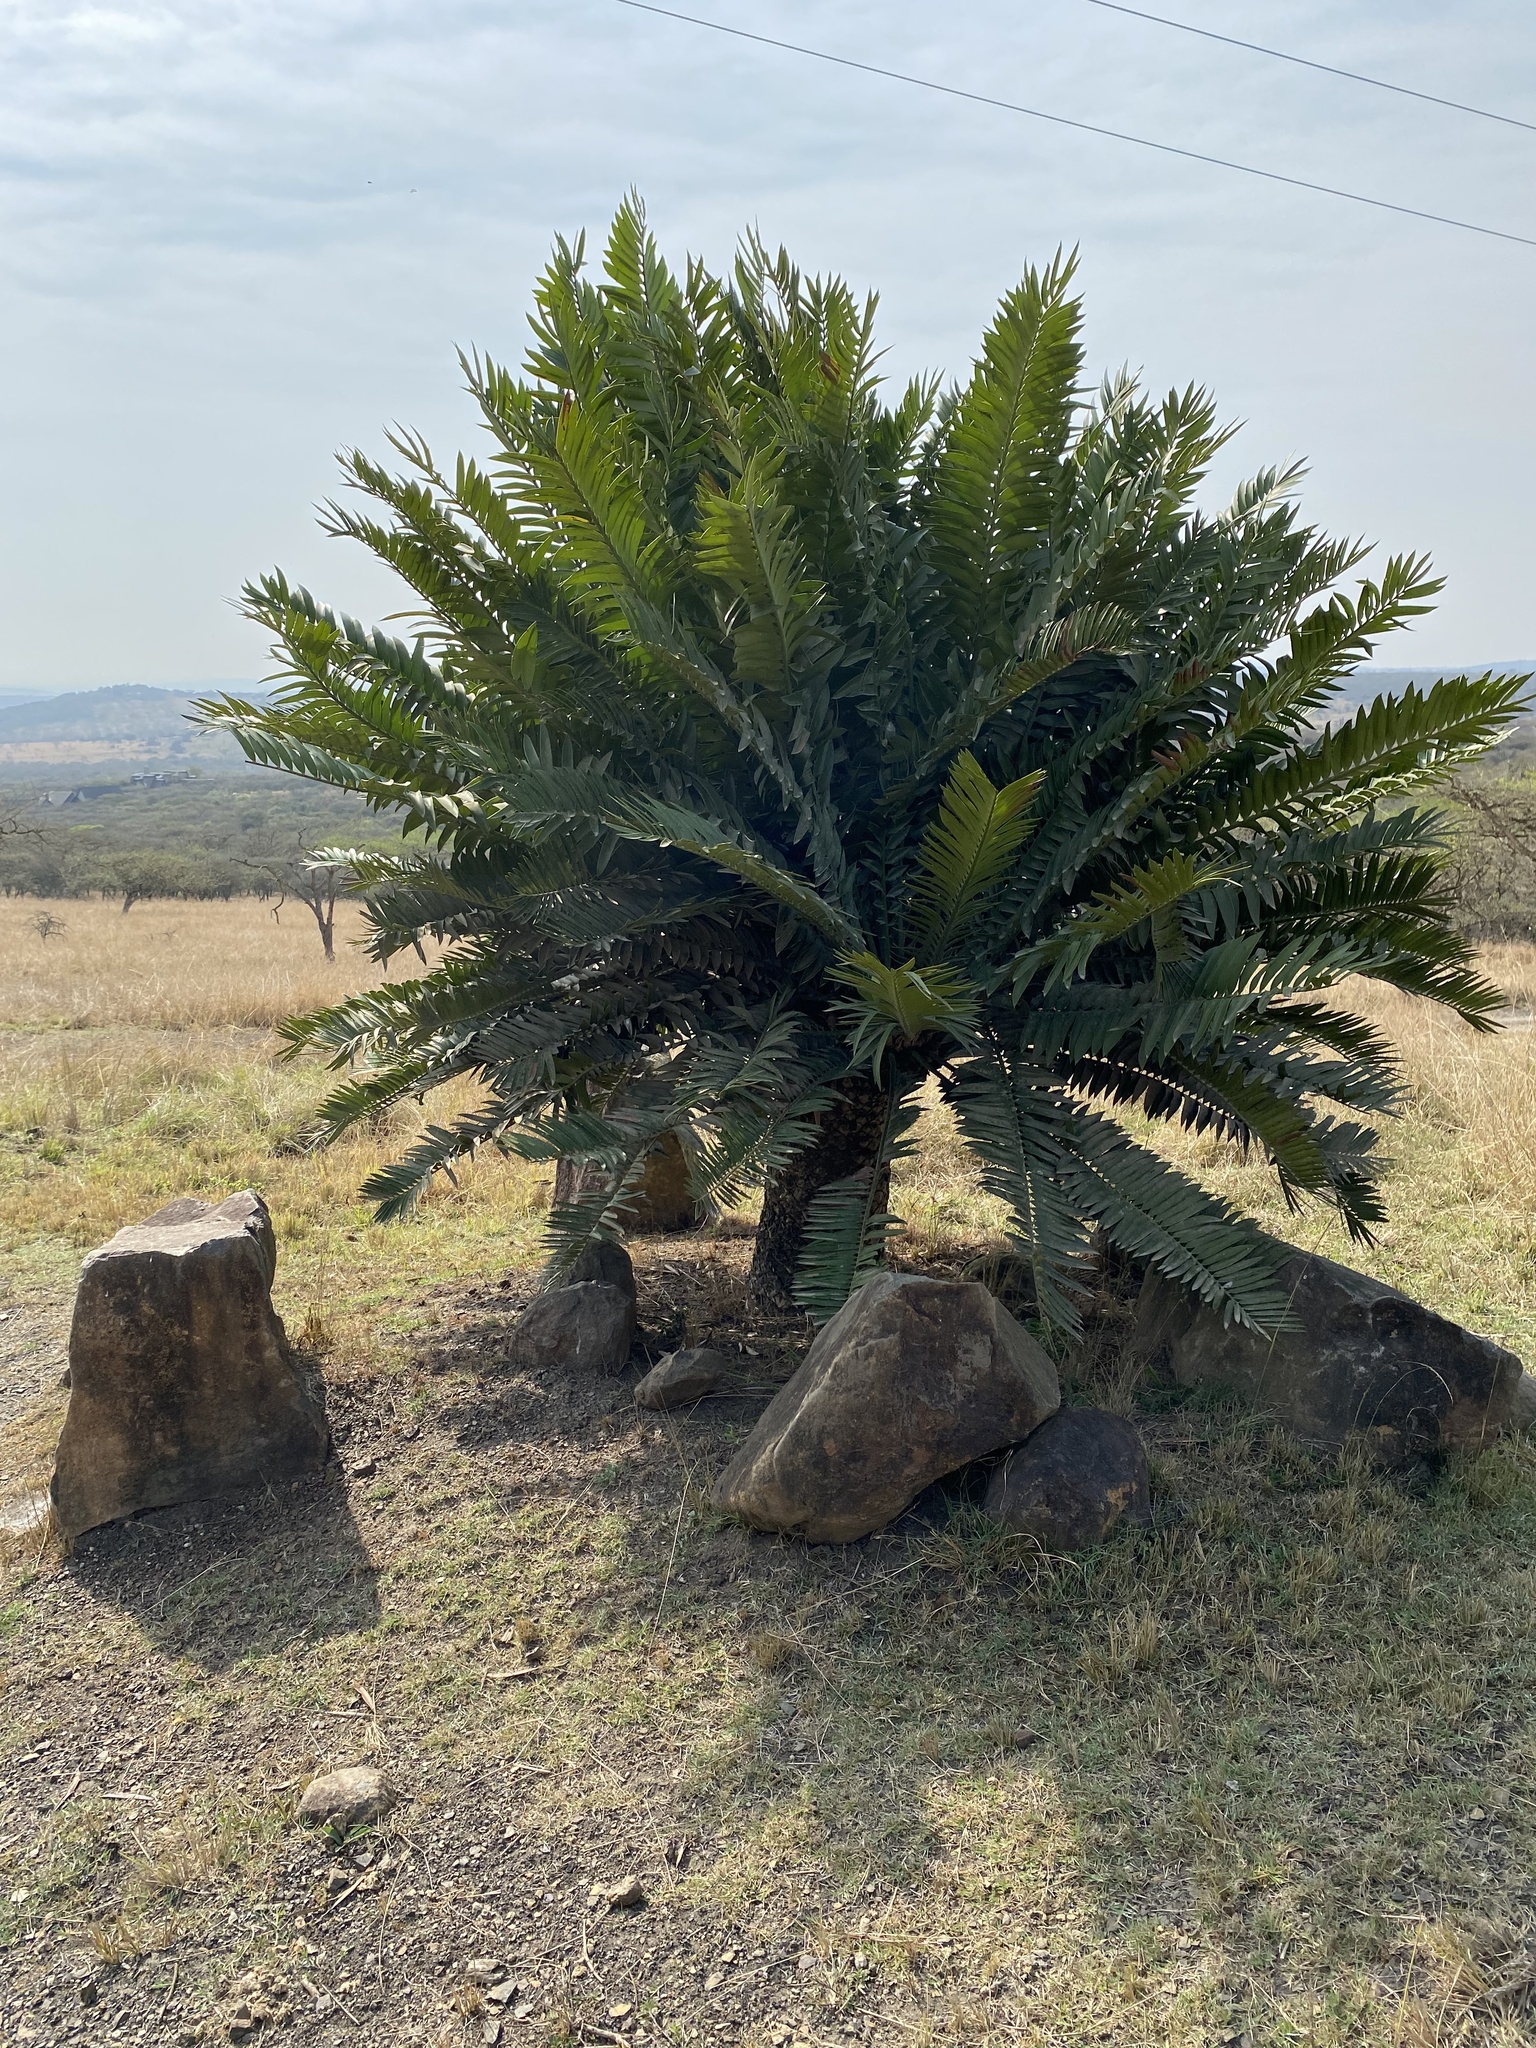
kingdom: Plantae
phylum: Tracheophyta
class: Cycadopsida
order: Cycadales
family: Zamiaceae
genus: Encephalartos
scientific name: Encephalartos natalensis
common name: Natal cycad
